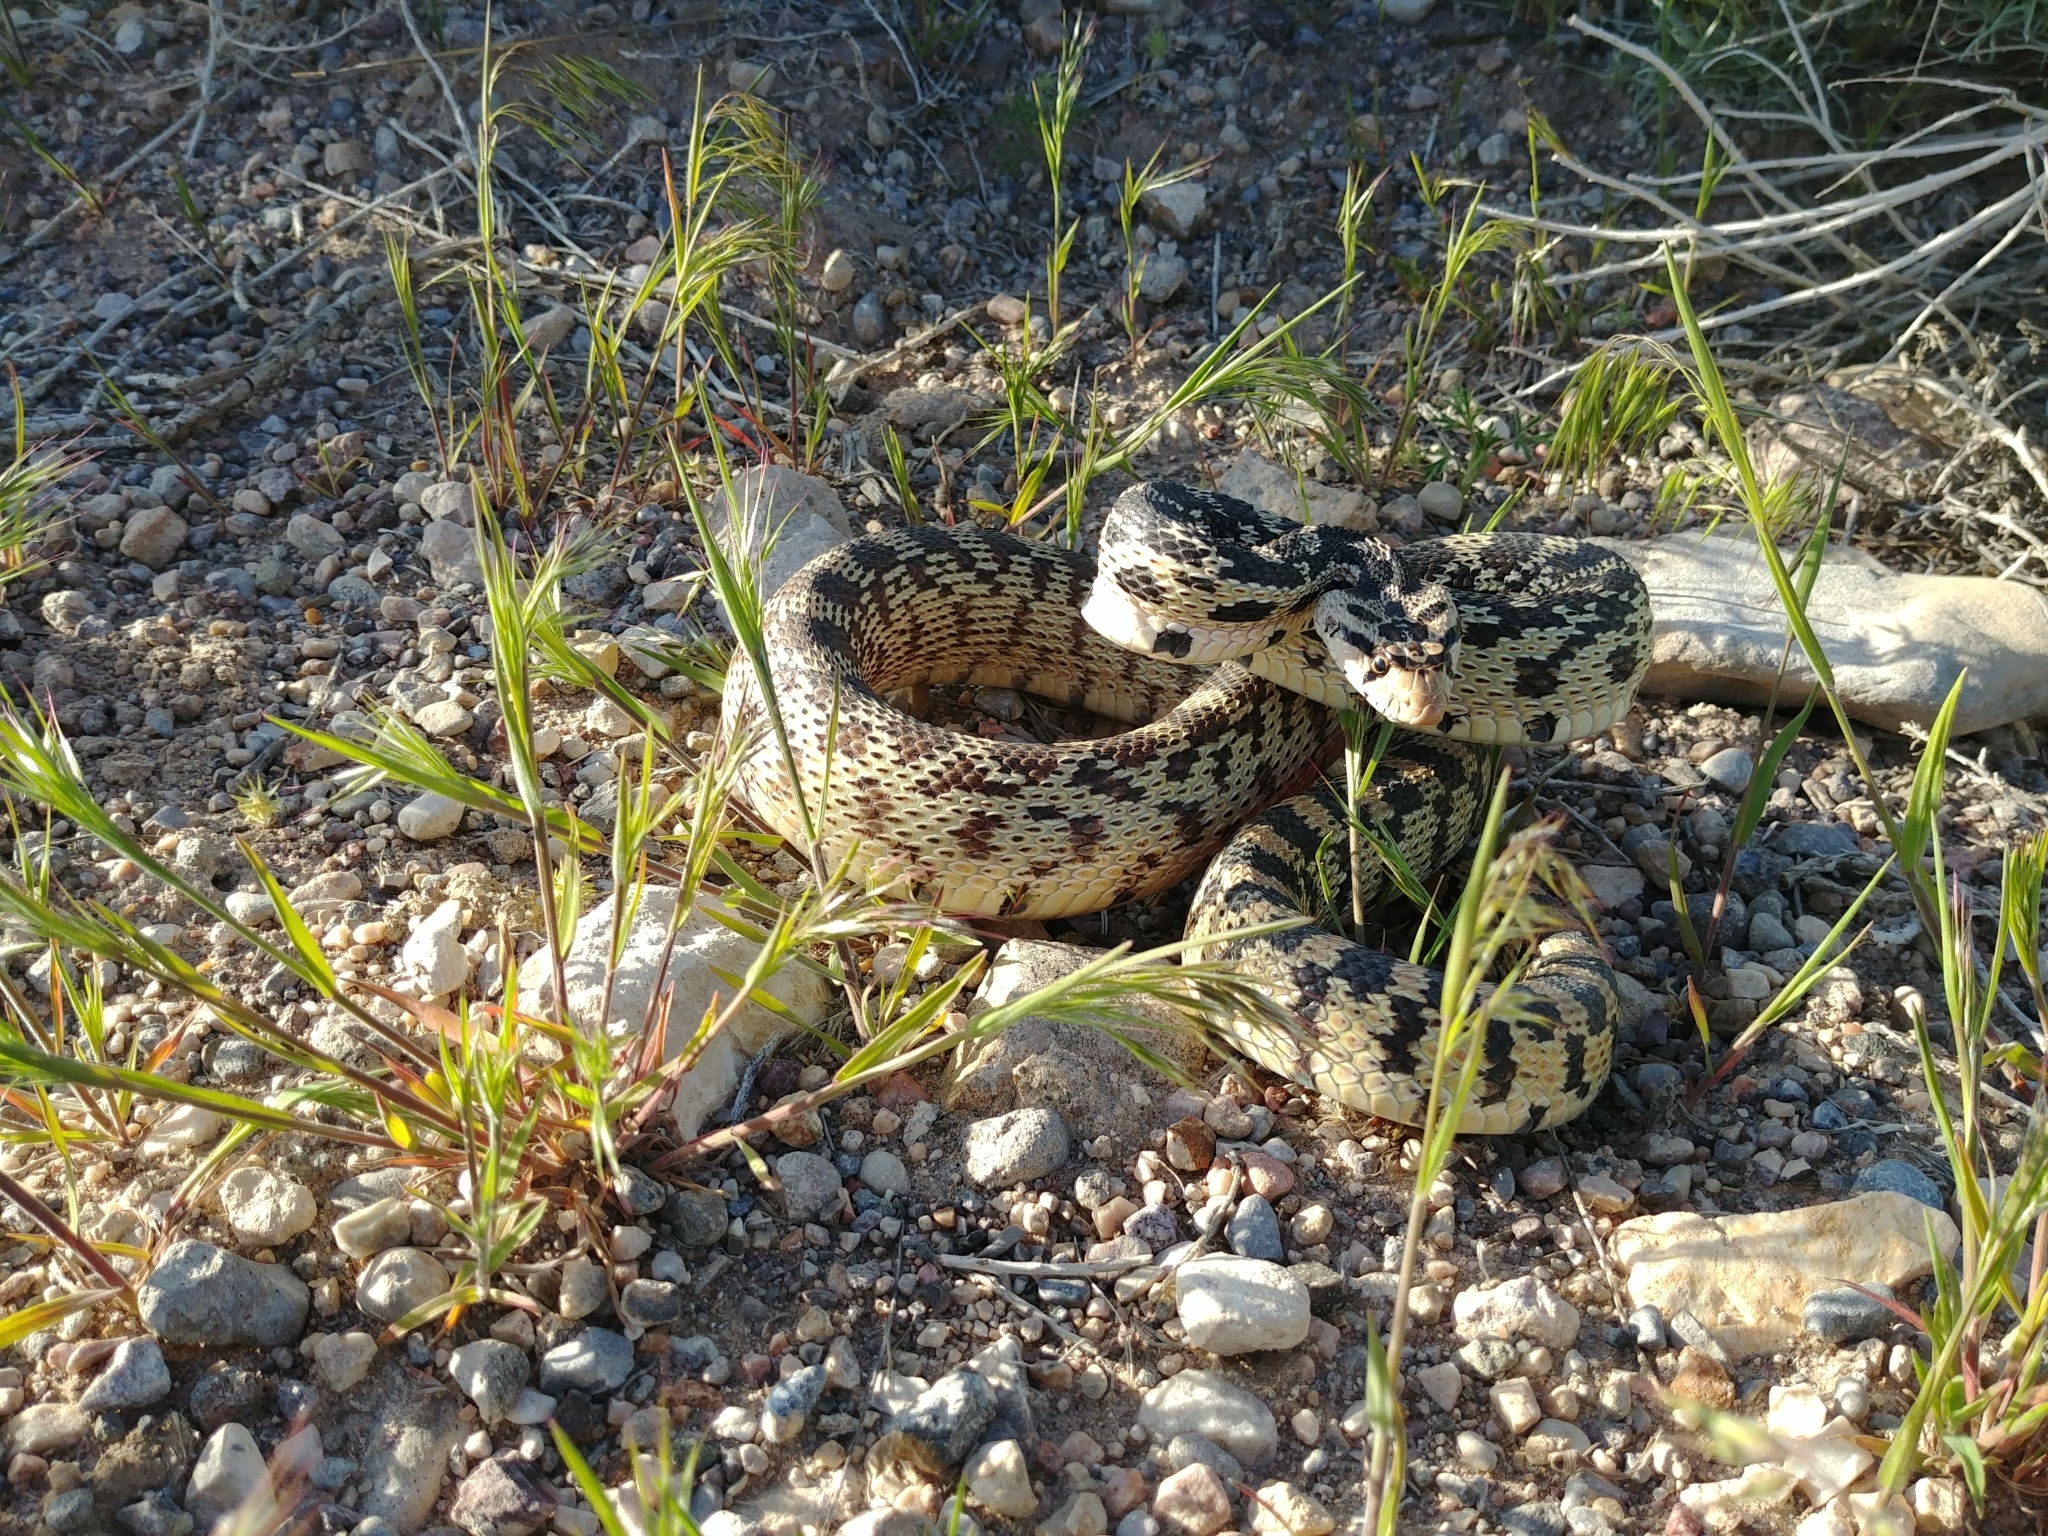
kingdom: Animalia
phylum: Chordata
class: Squamata
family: Colubridae
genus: Pituophis
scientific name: Pituophis catenifer
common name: Gopher snake
